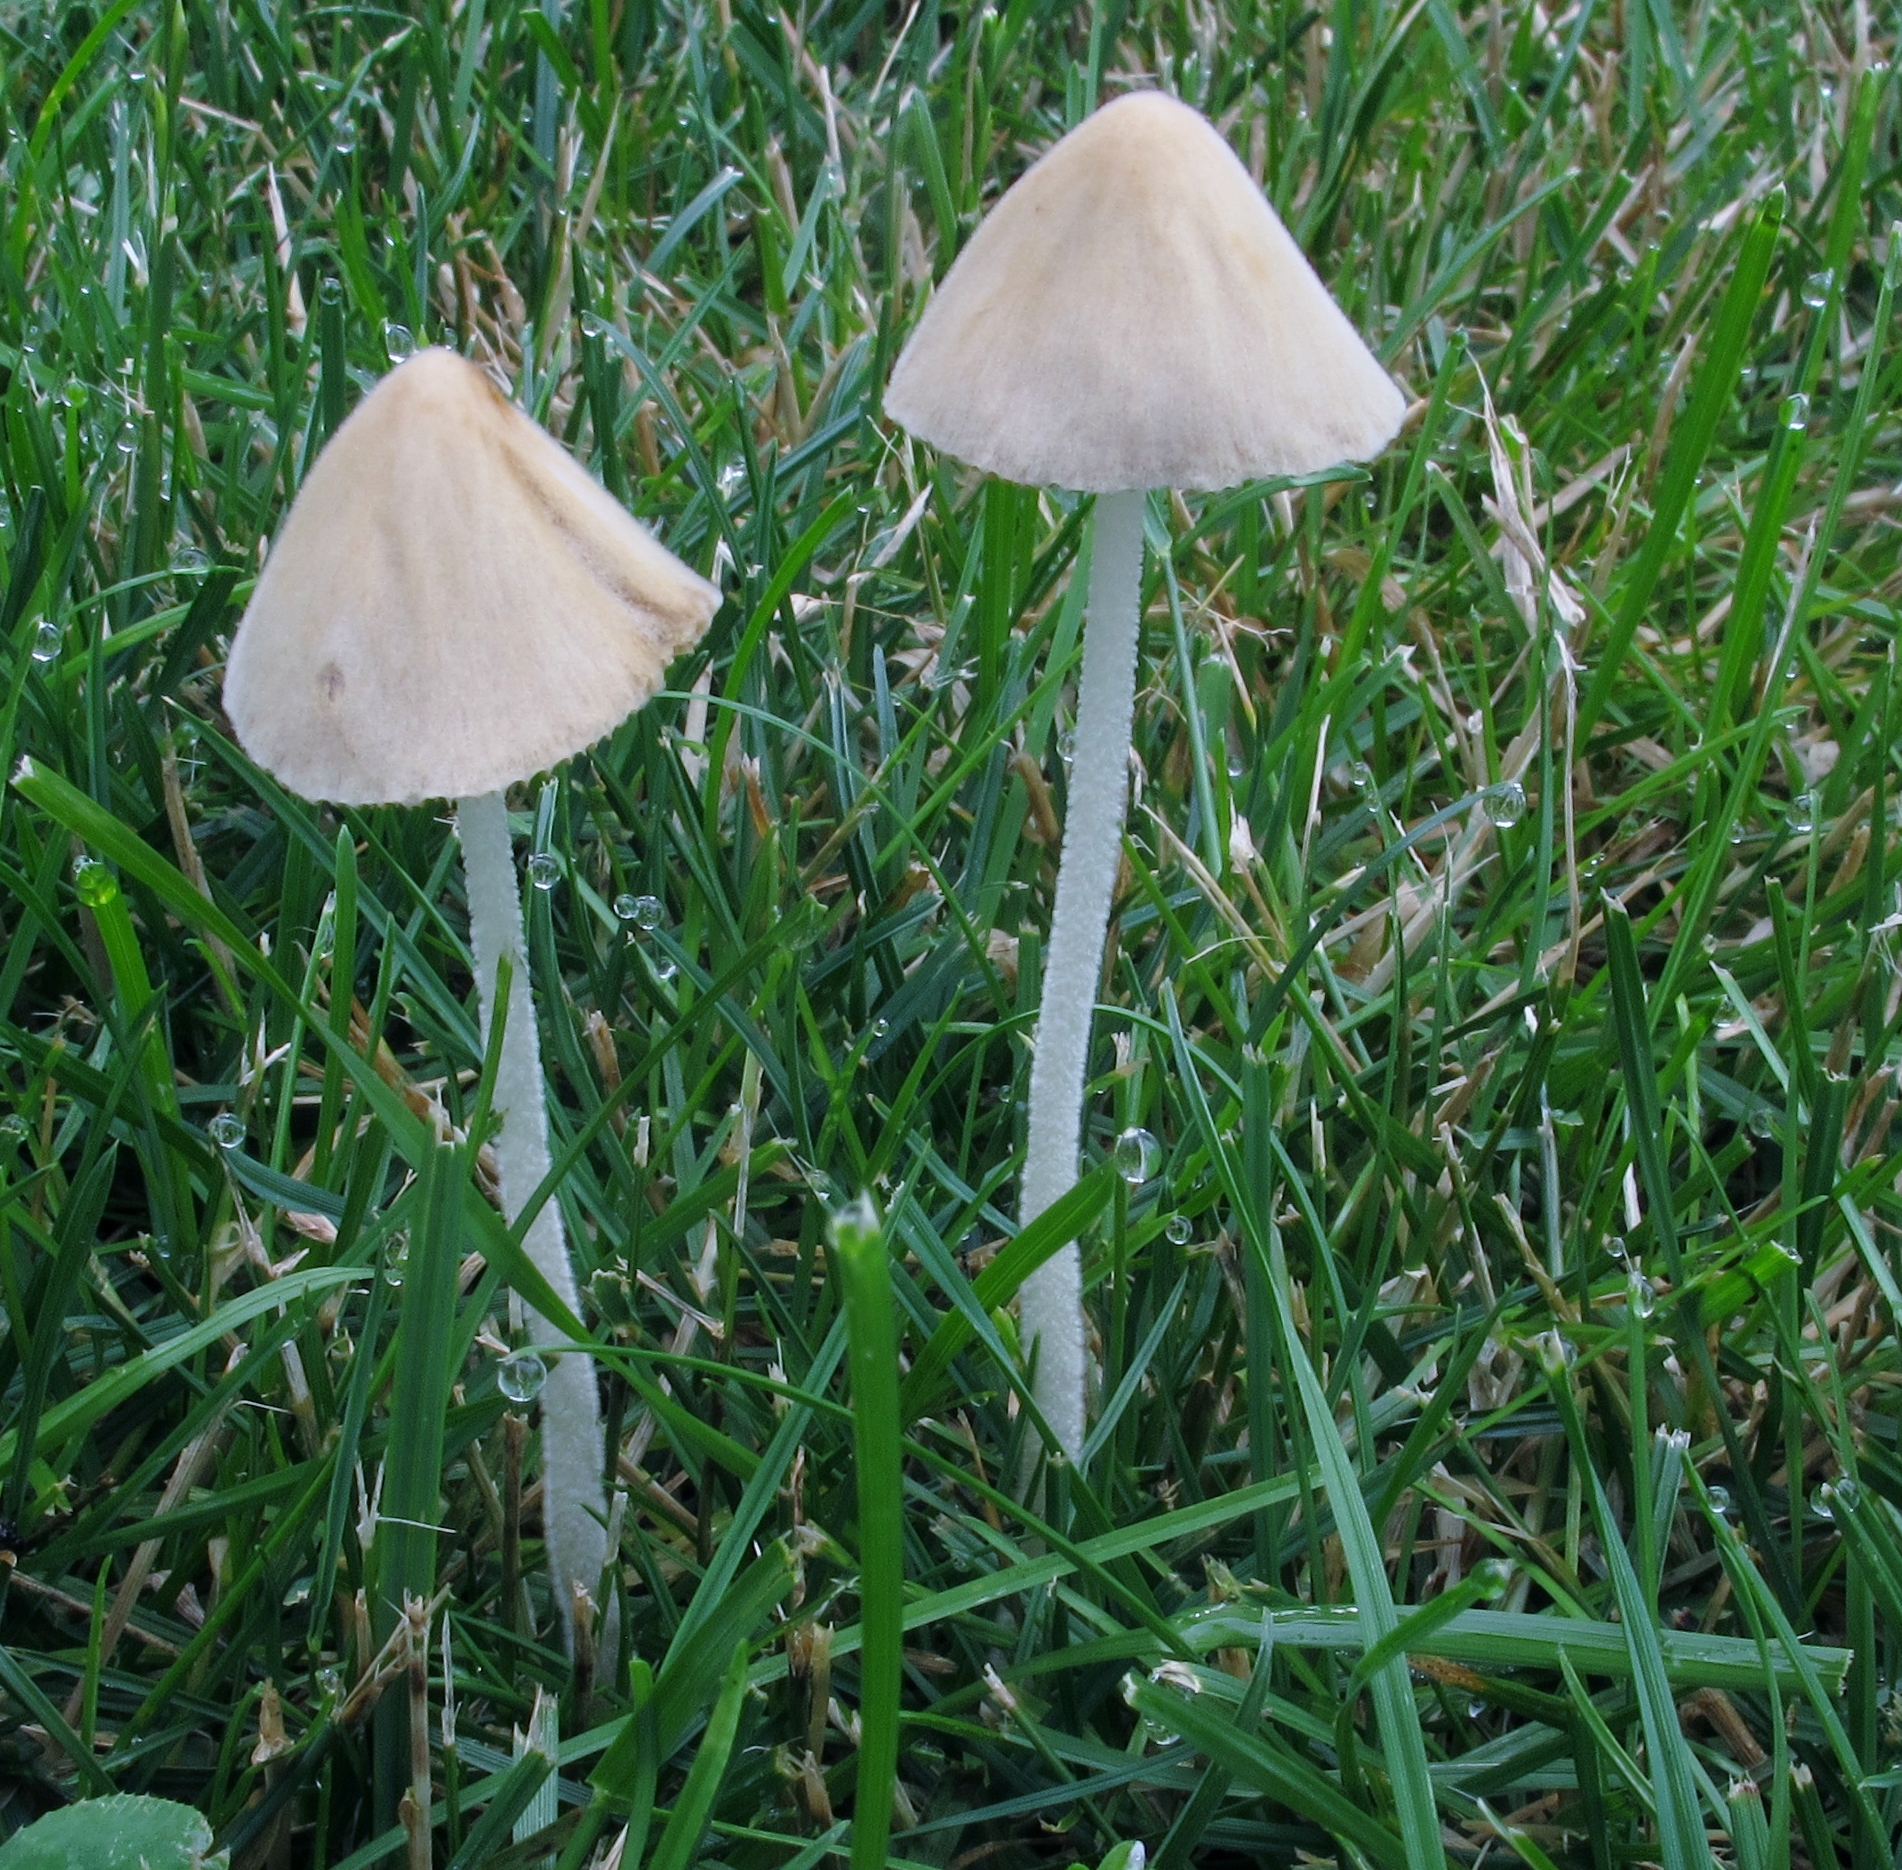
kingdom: Fungi
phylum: Basidiomycota
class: Agaricomycetes
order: Agaricales
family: Bolbitiaceae
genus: Conocybe
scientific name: Conocybe apala
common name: Milky conecap
